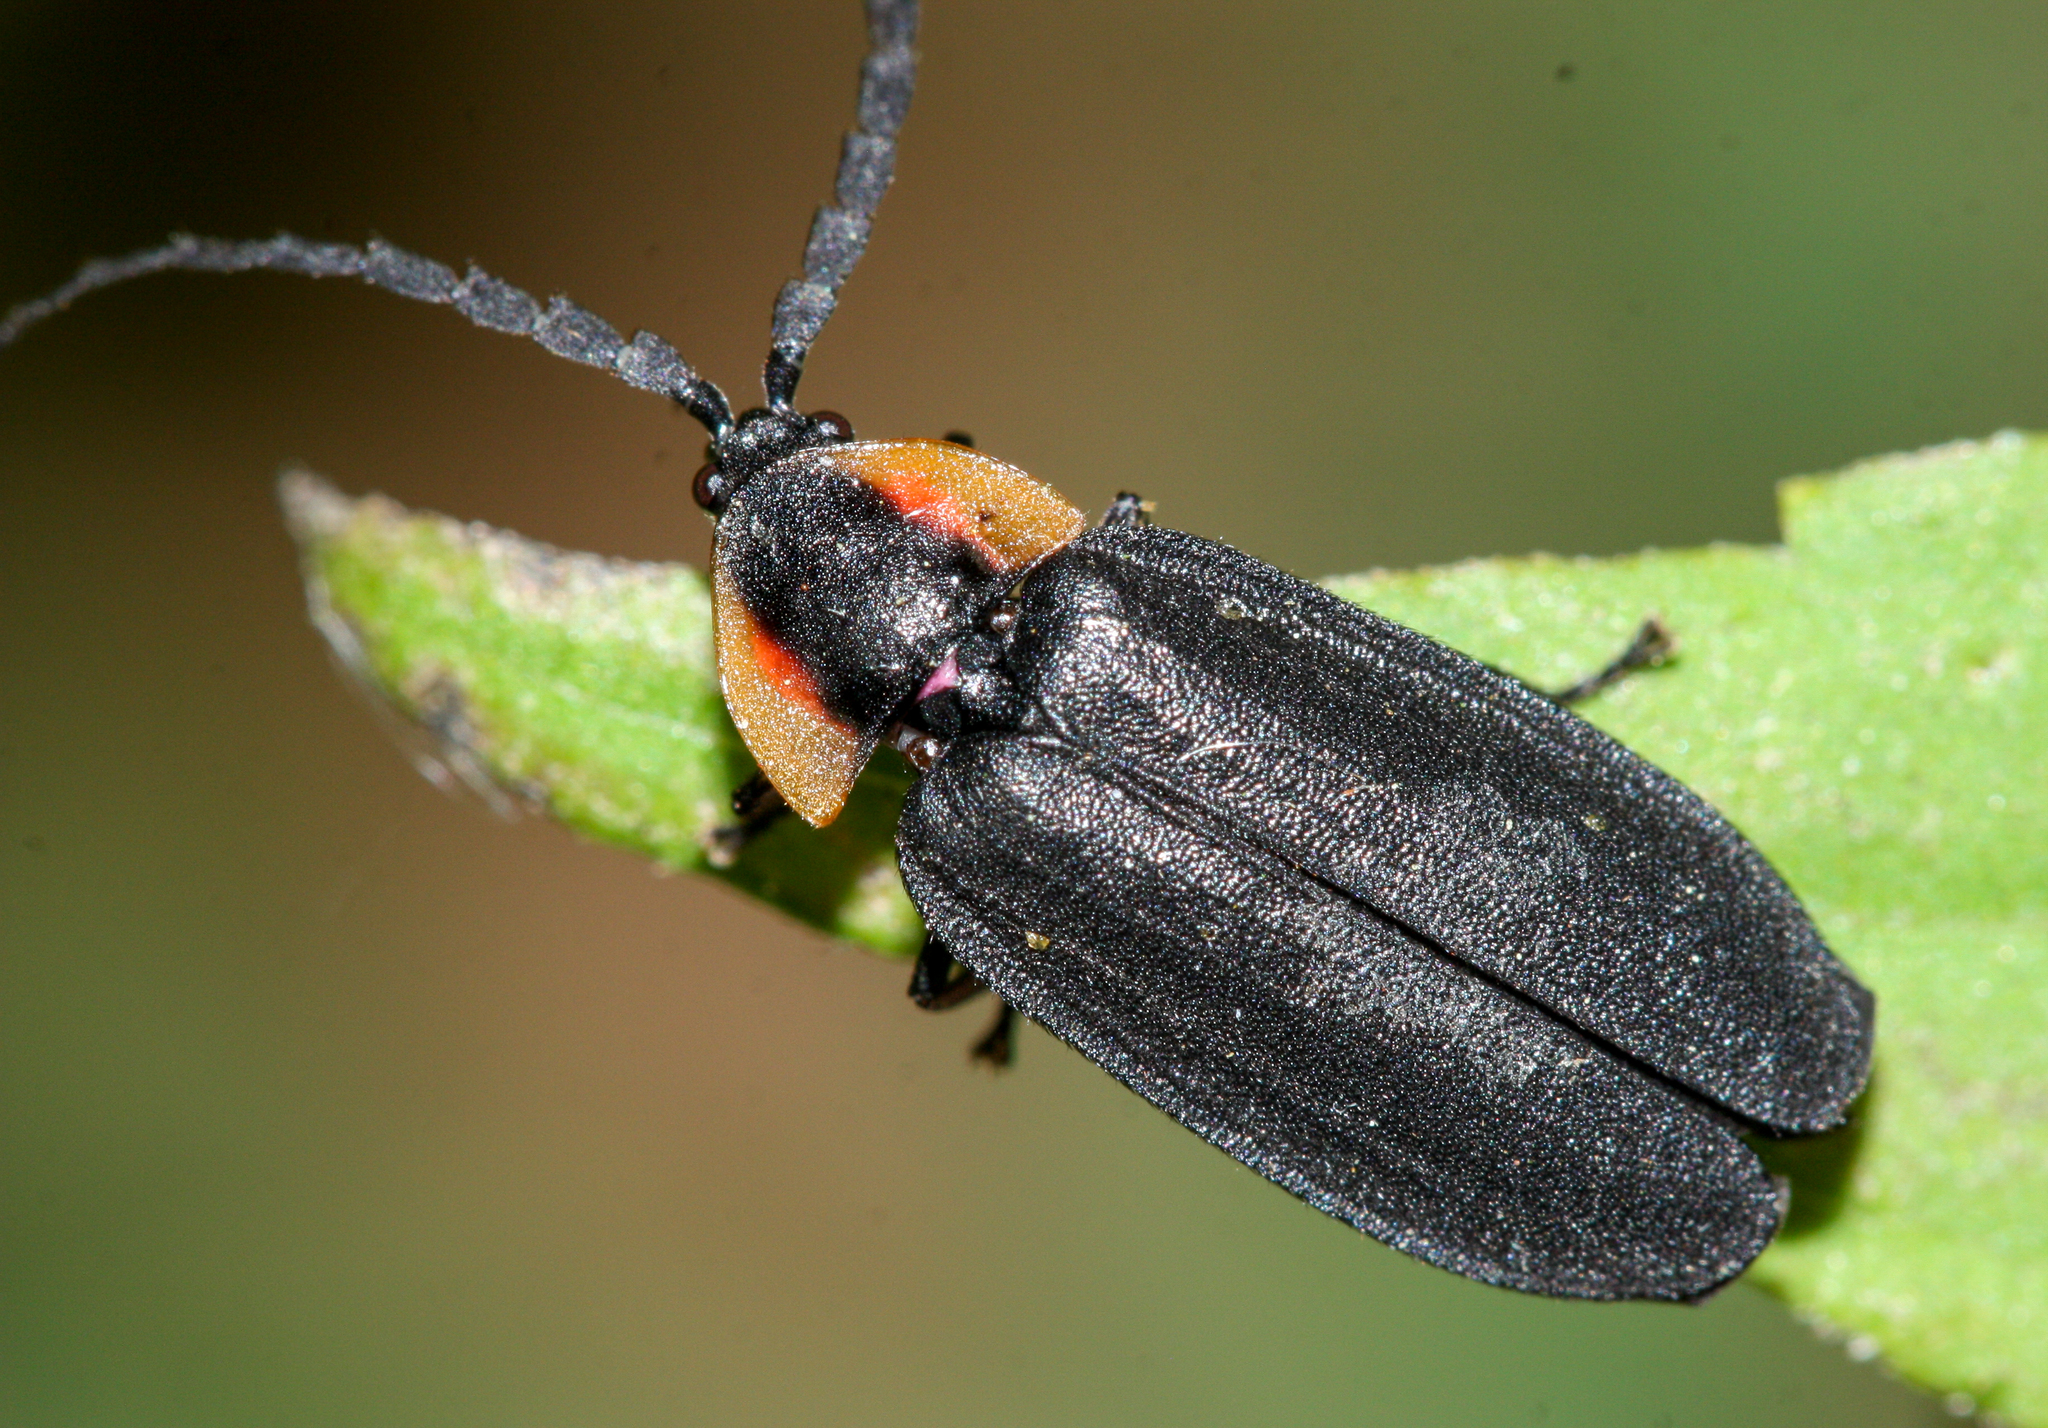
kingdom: Animalia
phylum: Arthropoda
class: Insecta
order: Coleoptera
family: Lampyridae
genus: Lucidota
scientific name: Lucidota atra
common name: Black firefly
